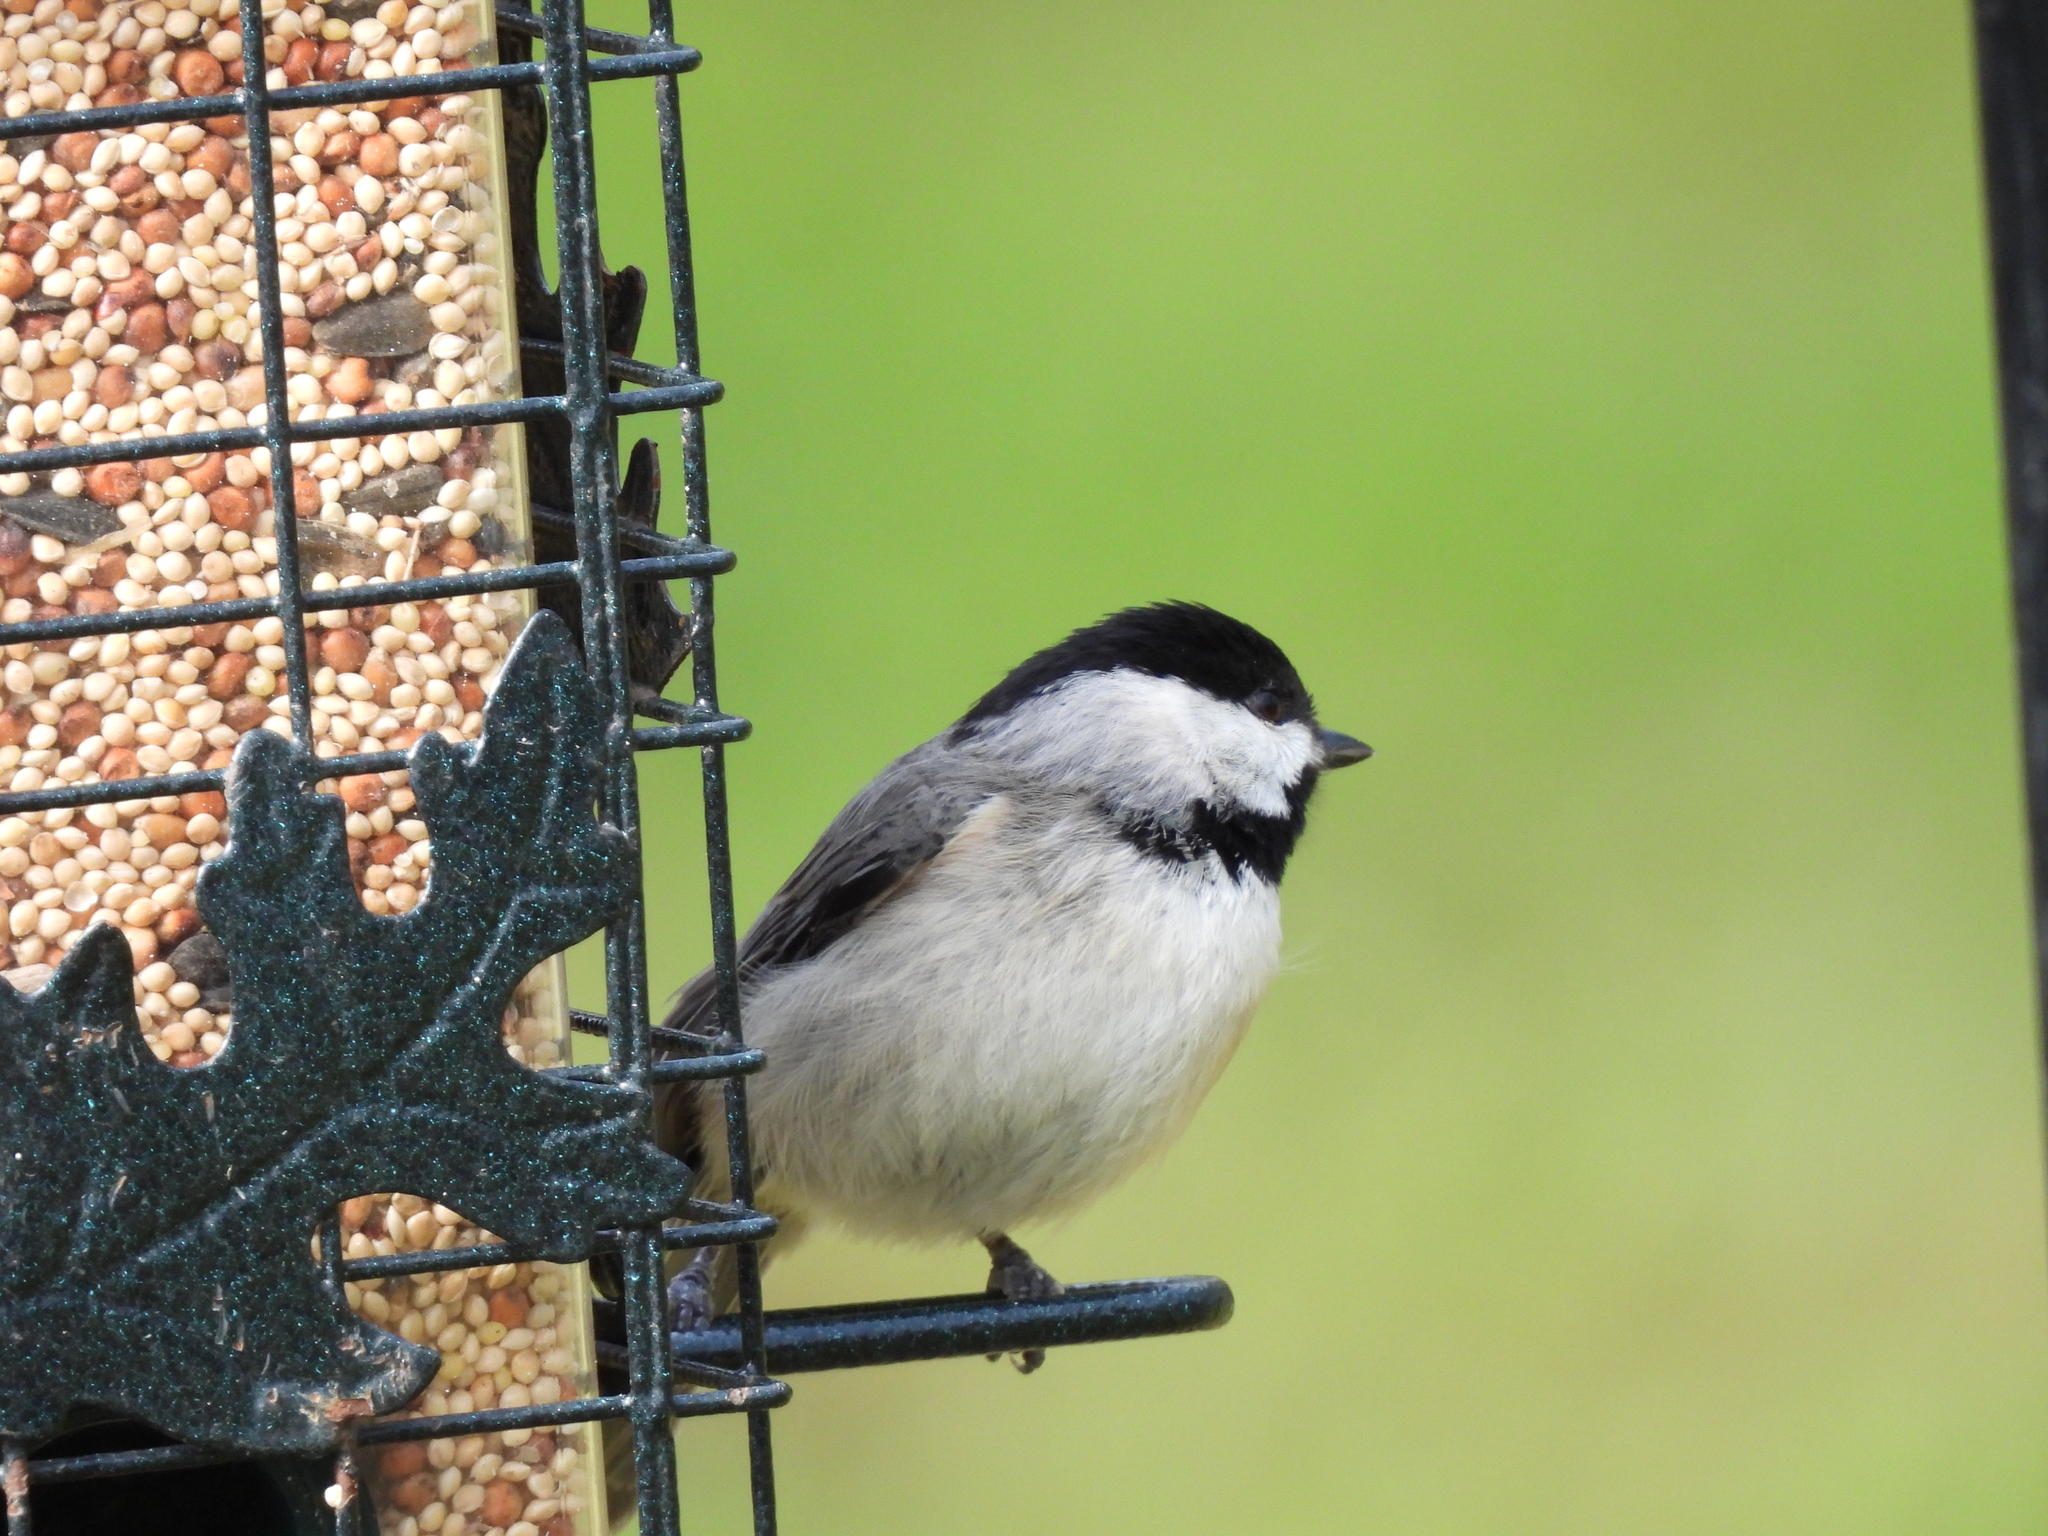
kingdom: Animalia
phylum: Chordata
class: Aves
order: Passeriformes
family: Paridae
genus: Poecile
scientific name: Poecile carolinensis
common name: Carolina chickadee
